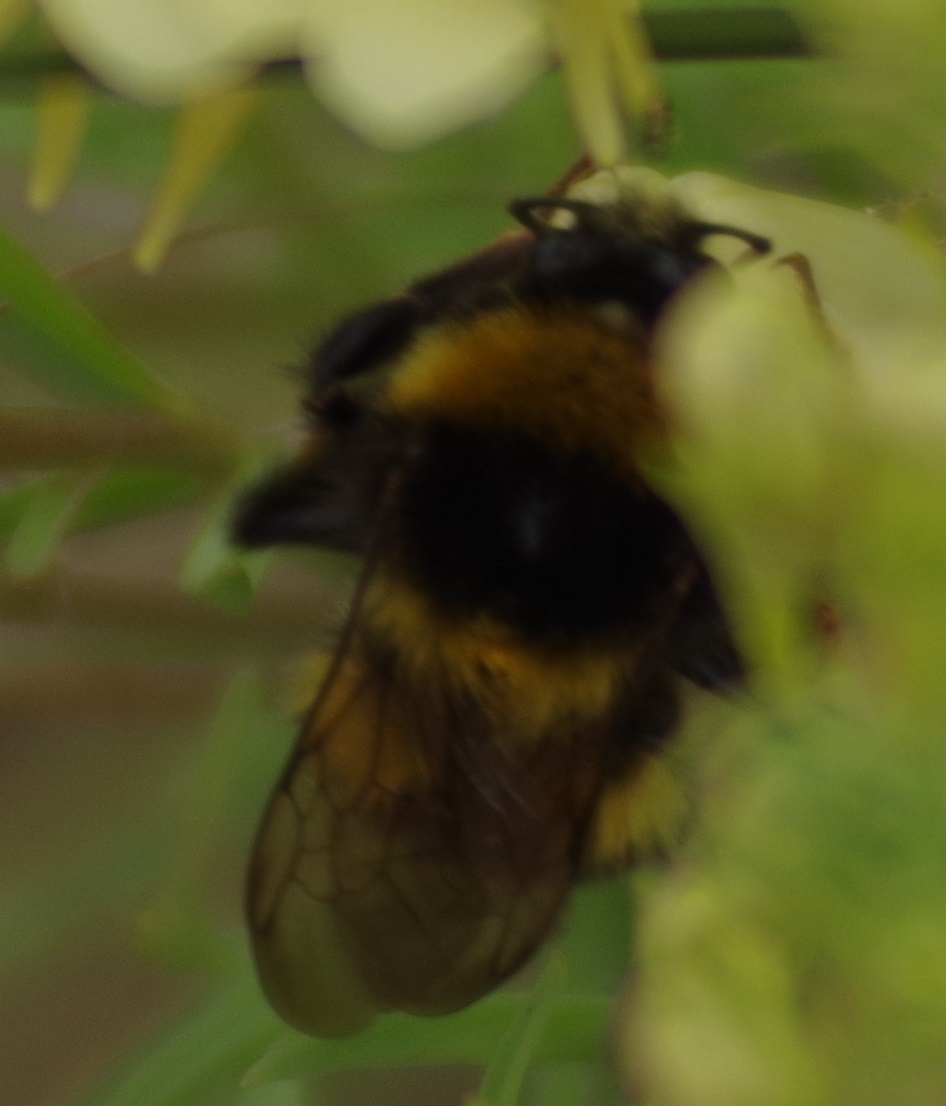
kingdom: Animalia
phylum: Arthropoda
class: Insecta
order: Hymenoptera
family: Apidae
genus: Bombus
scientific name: Bombus hortorum
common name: Garden bumblebee
